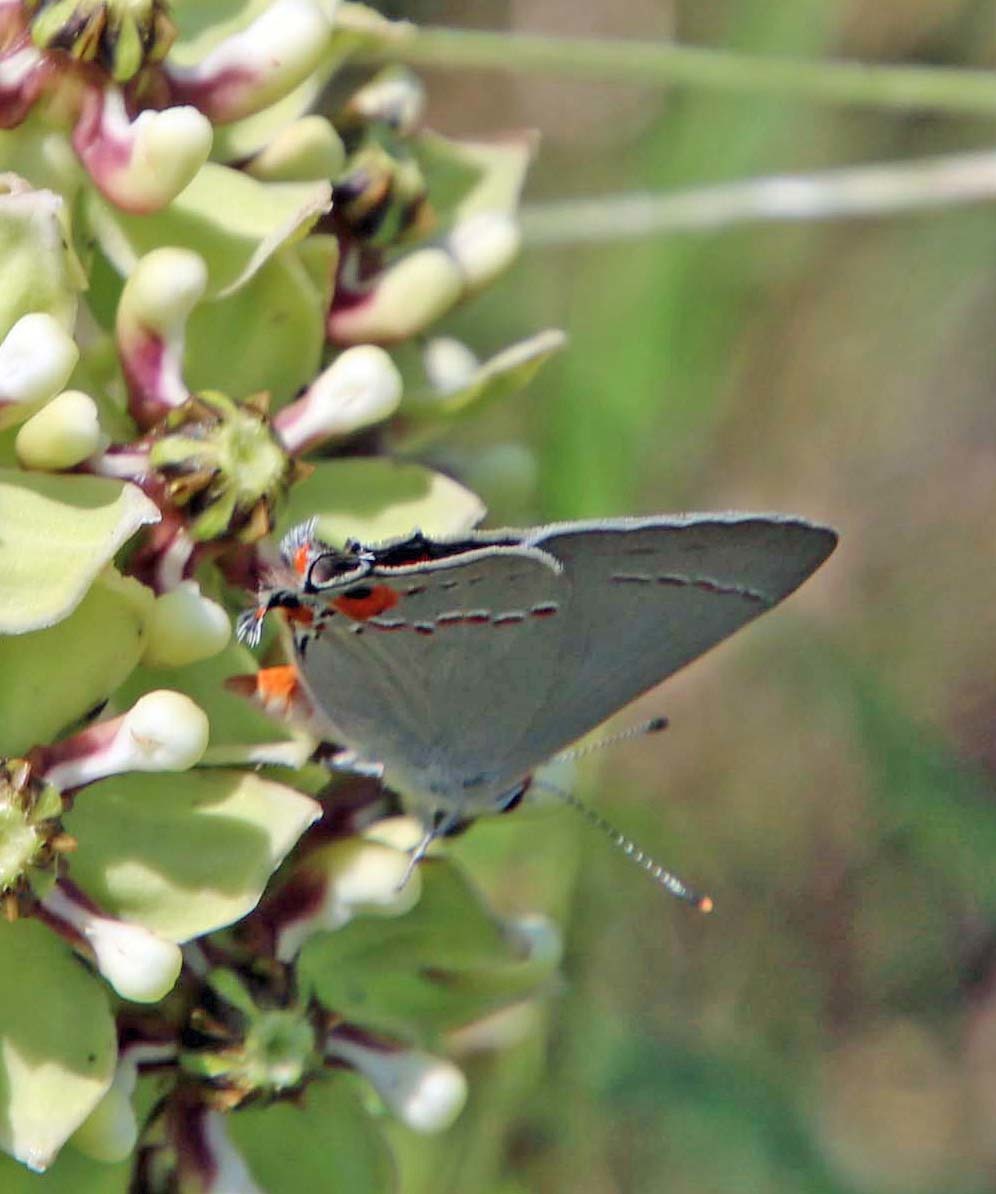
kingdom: Animalia
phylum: Arthropoda
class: Insecta
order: Lepidoptera
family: Lycaenidae
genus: Strymon
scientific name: Strymon melinus
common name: Gray hairstreak
